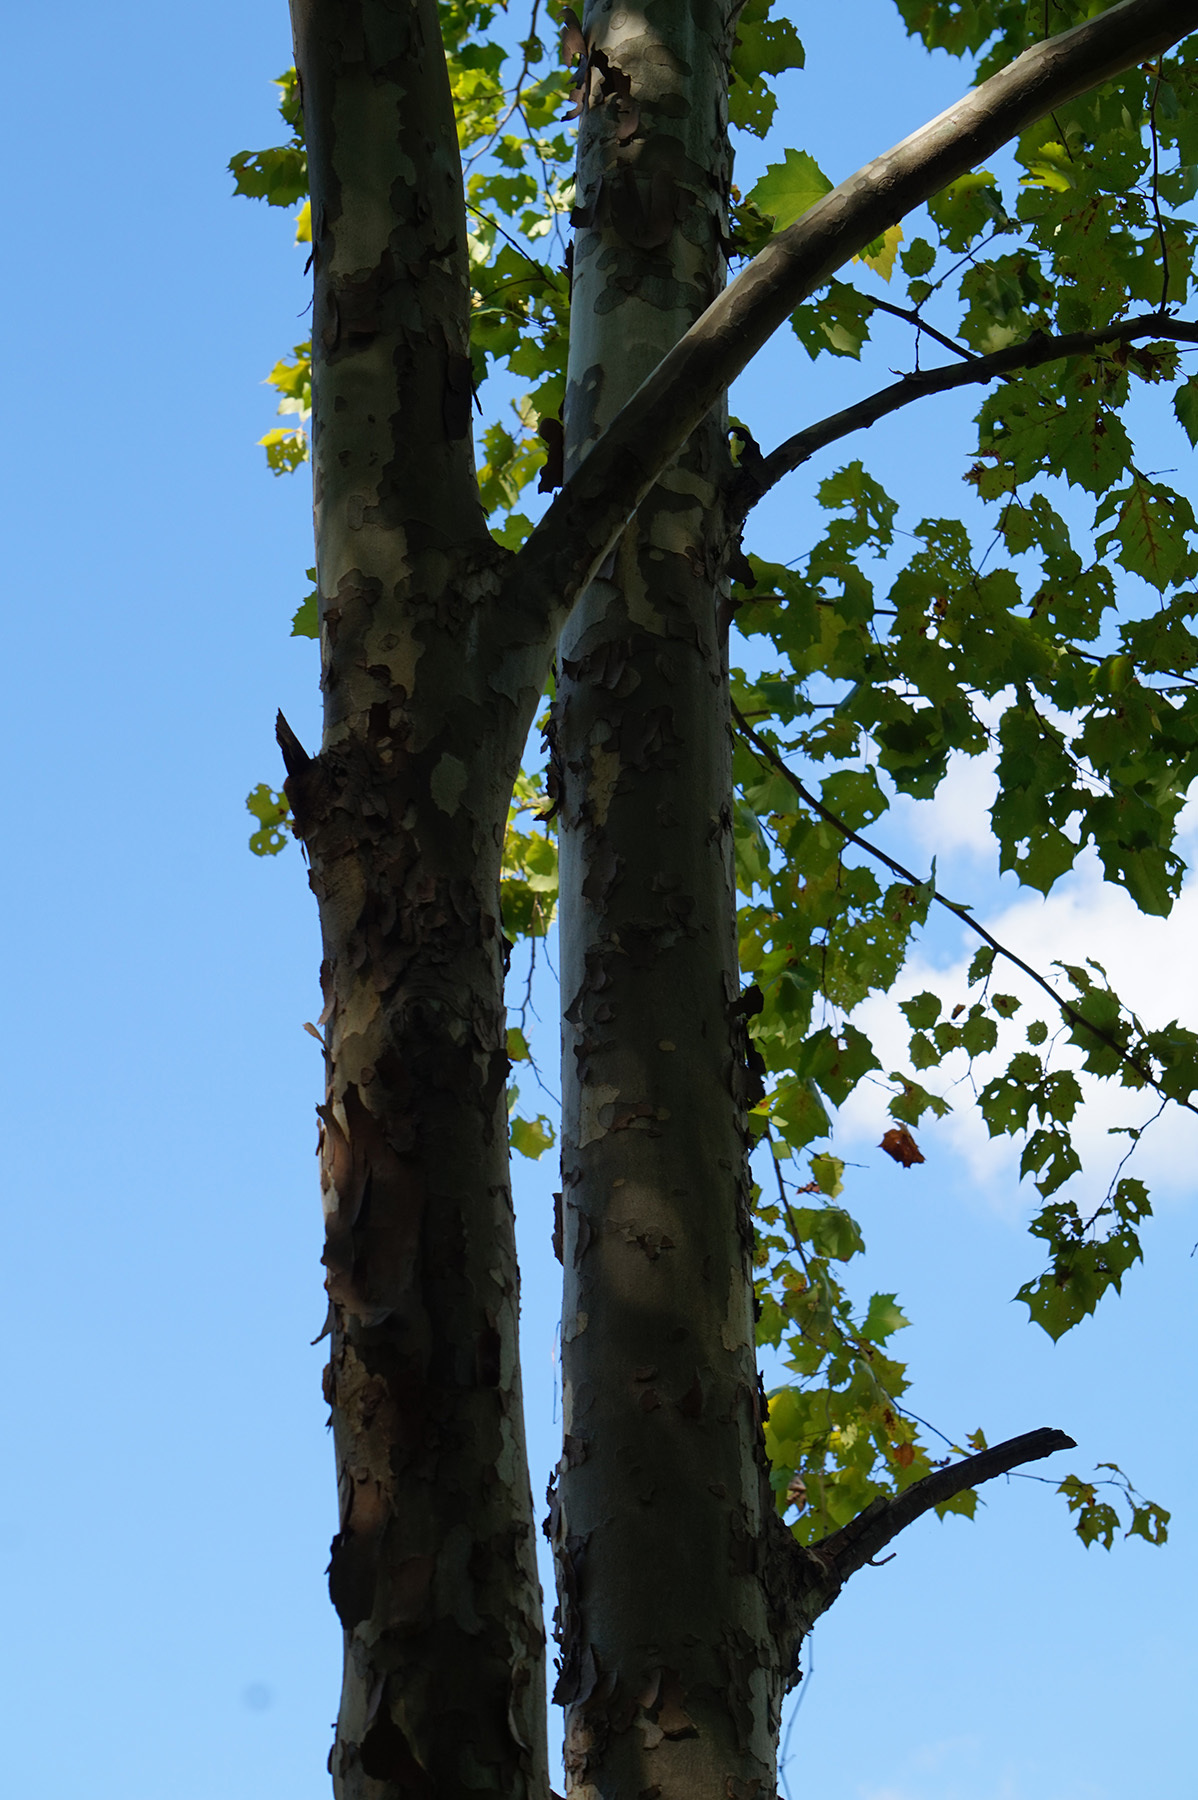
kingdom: Plantae
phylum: Tracheophyta
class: Magnoliopsida
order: Proteales
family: Platanaceae
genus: Platanus
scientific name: Platanus occidentalis
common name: American sycamore
